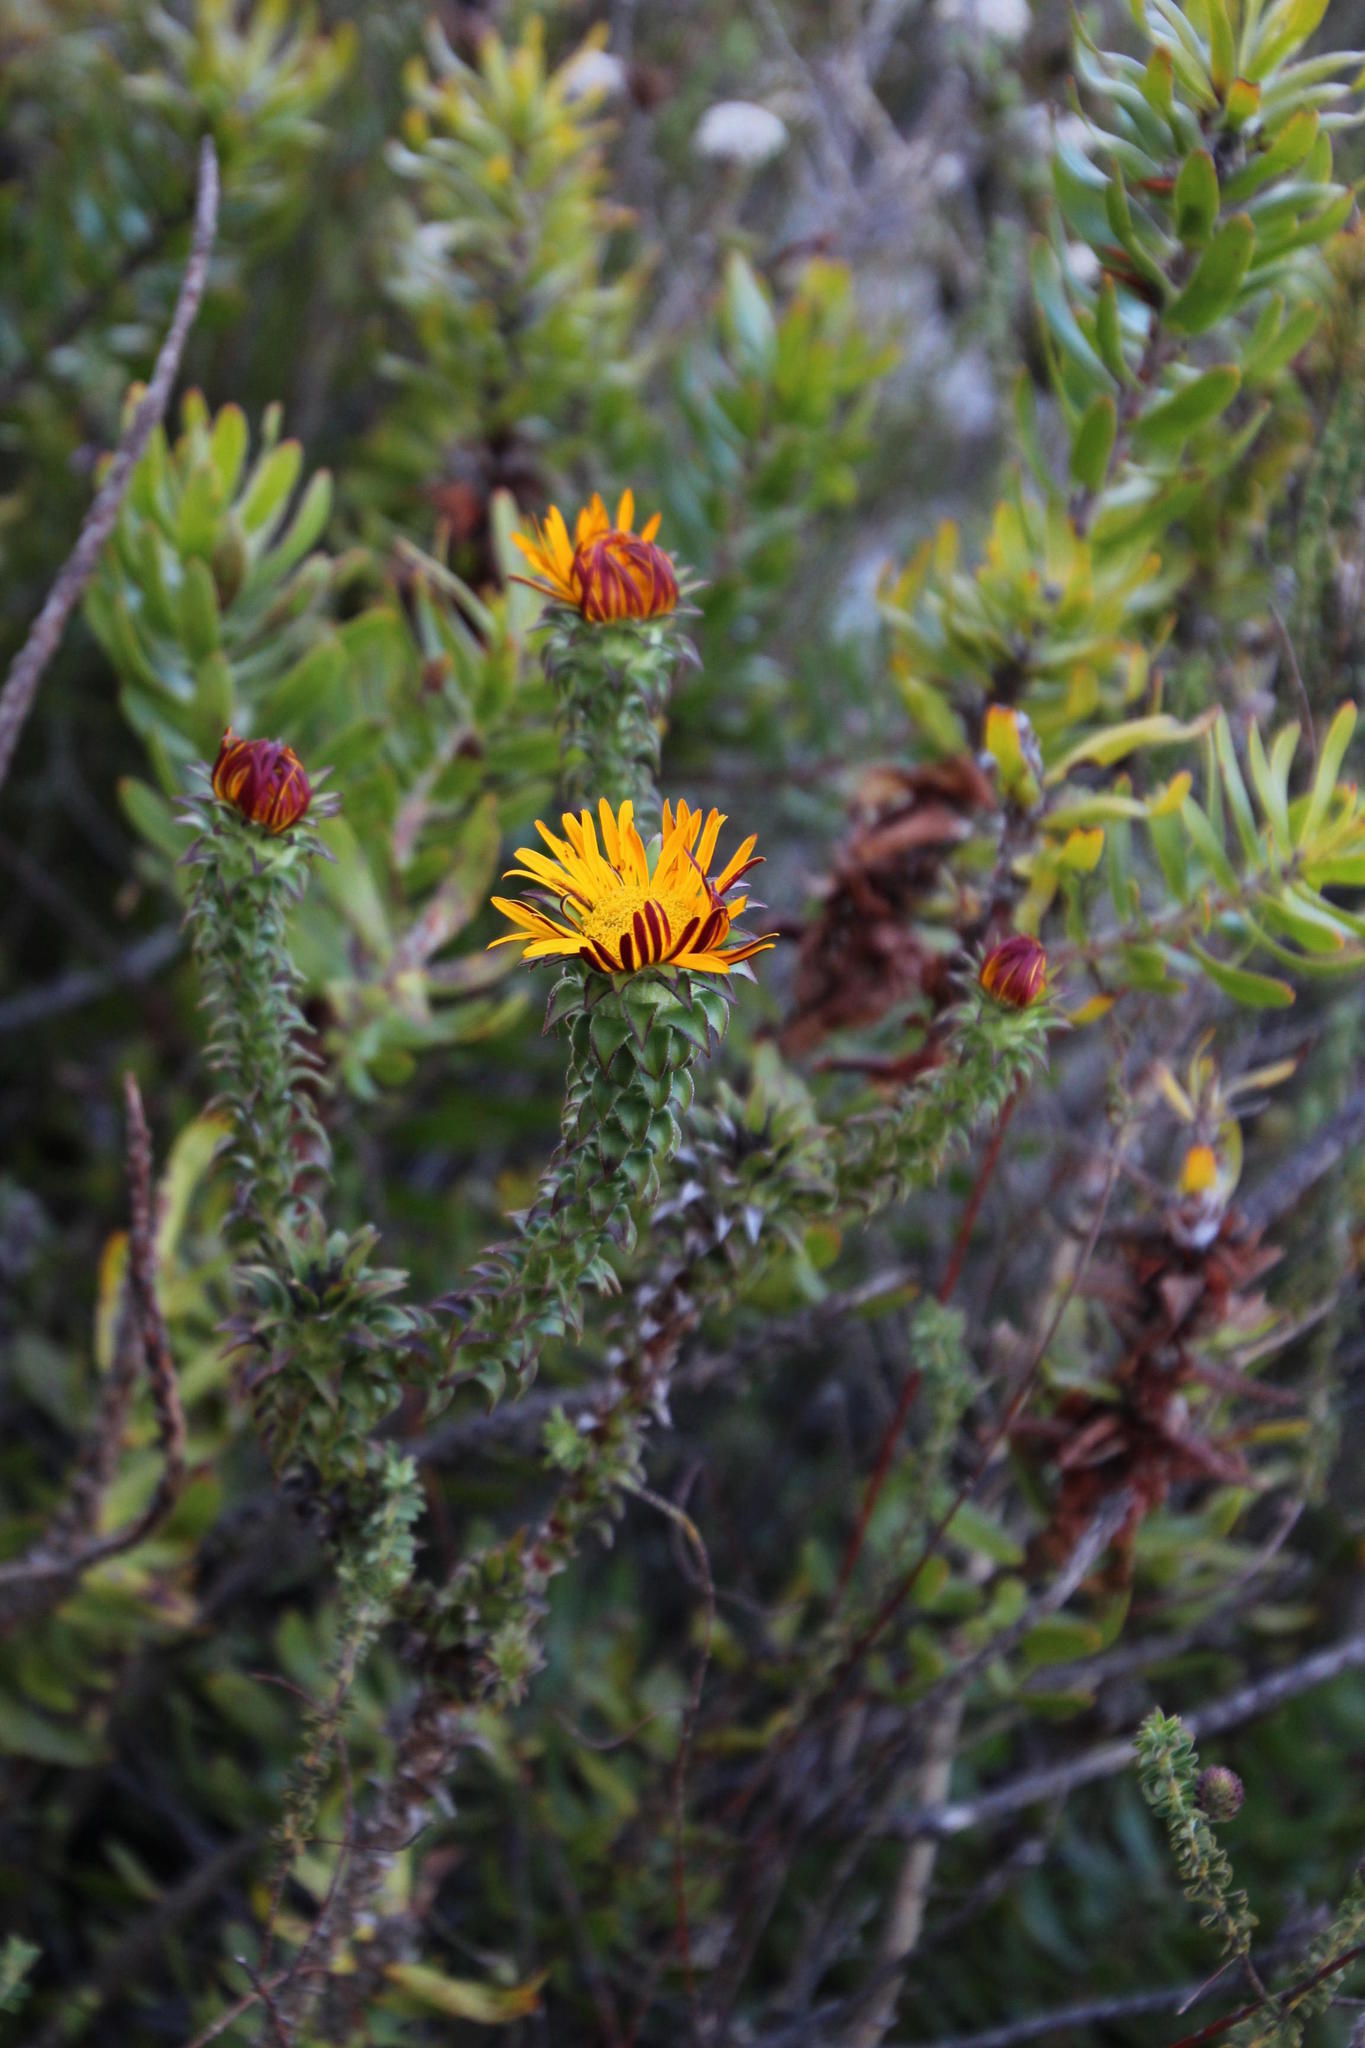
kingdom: Plantae
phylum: Tracheophyta
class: Magnoliopsida
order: Asterales
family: Asteraceae
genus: Oedera
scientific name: Oedera imbricata
